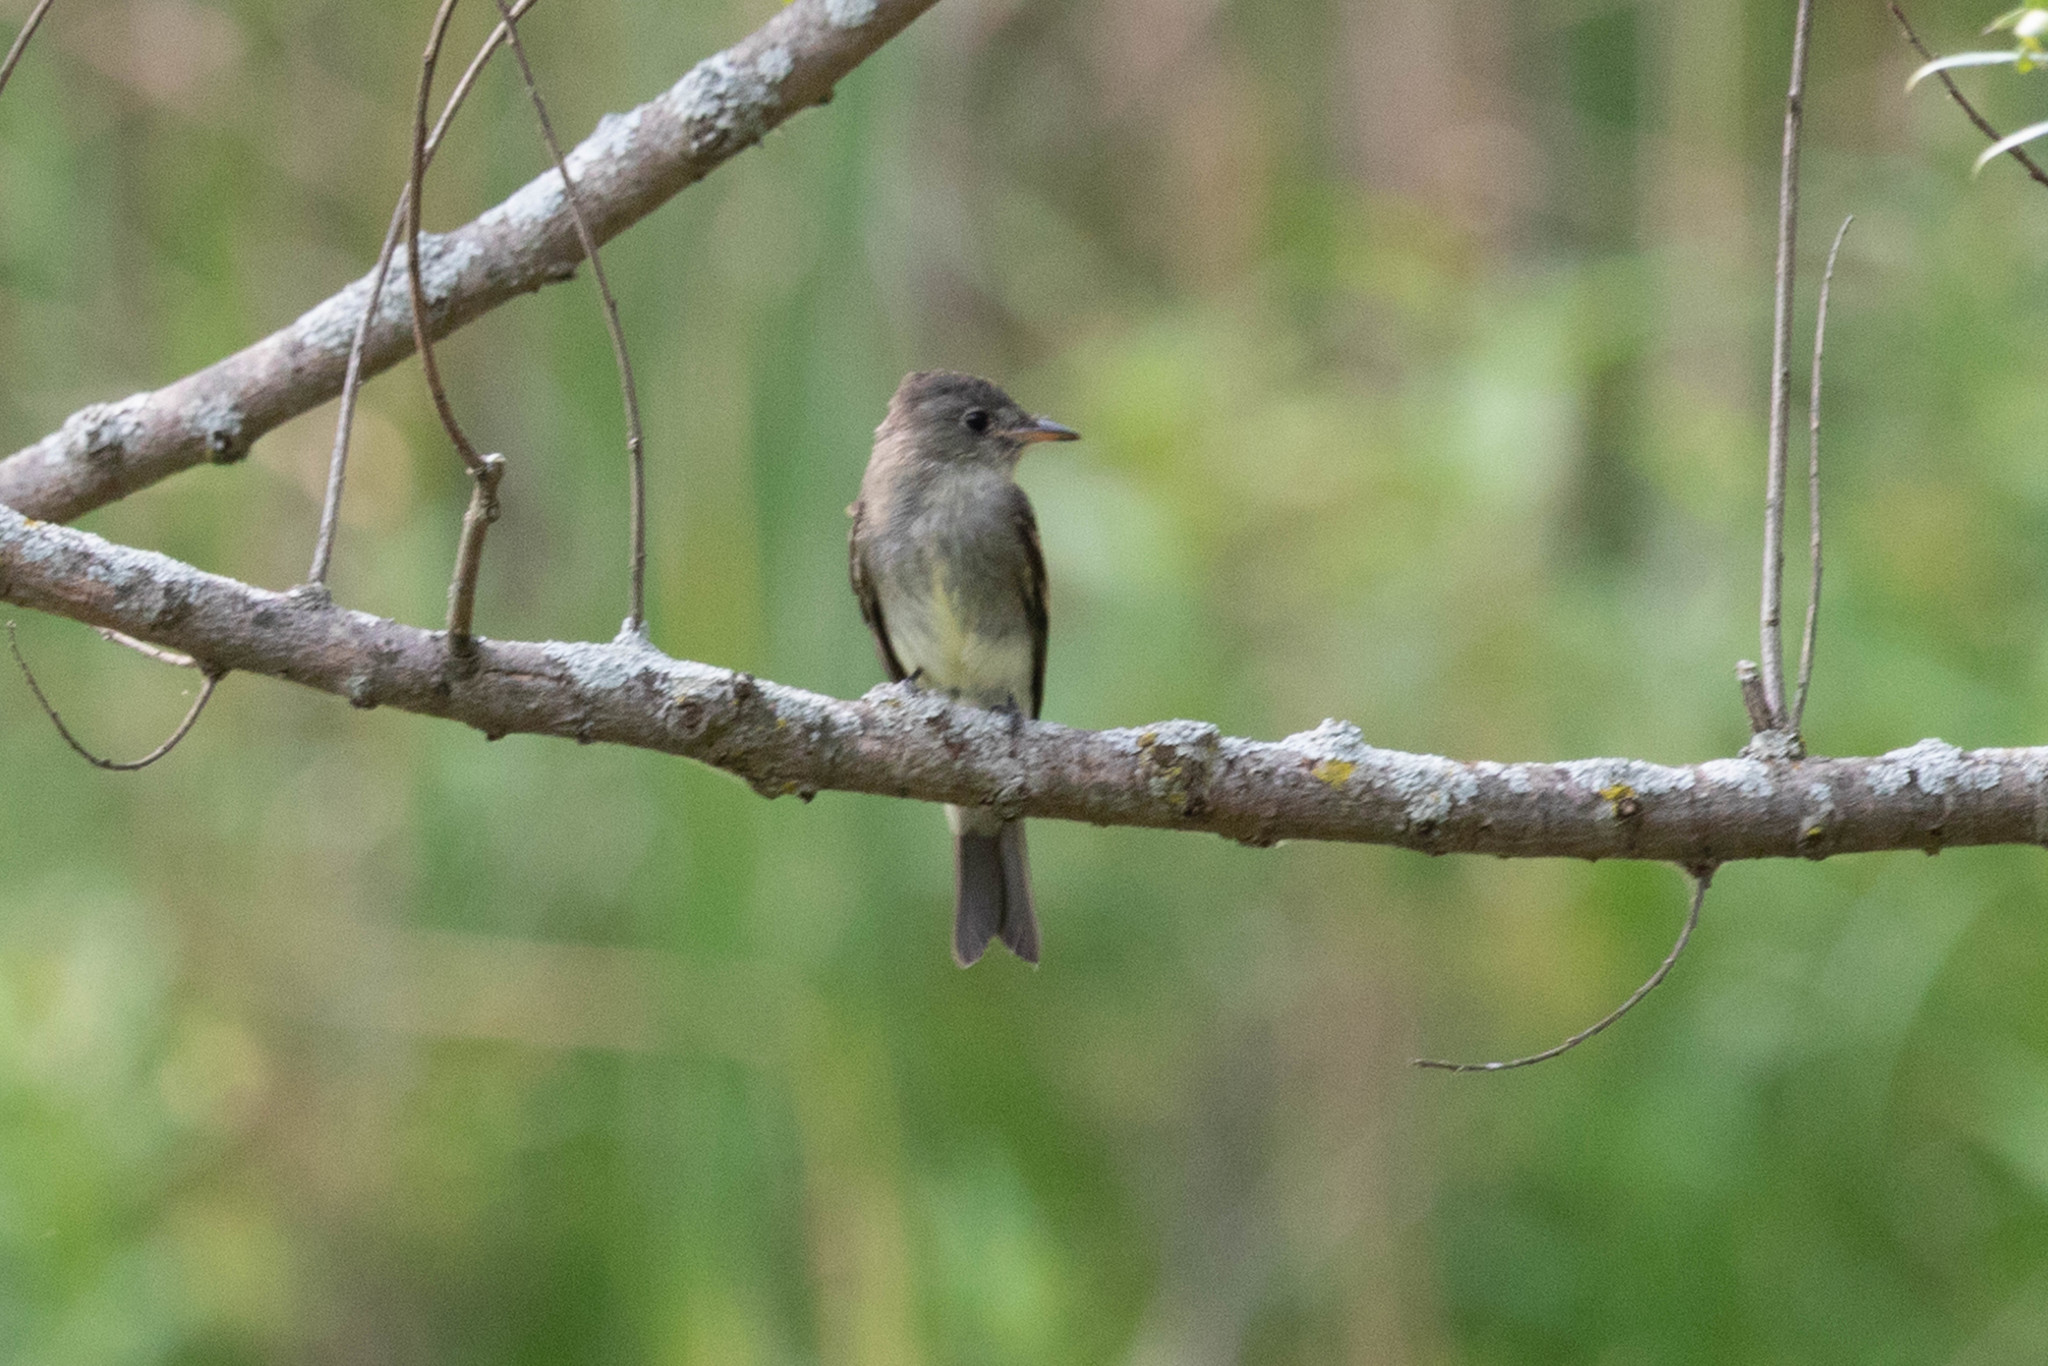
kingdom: Animalia
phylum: Chordata
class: Aves
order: Passeriformes
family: Tyrannidae
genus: Contopus
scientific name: Contopus virens
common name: Eastern wood-pewee
